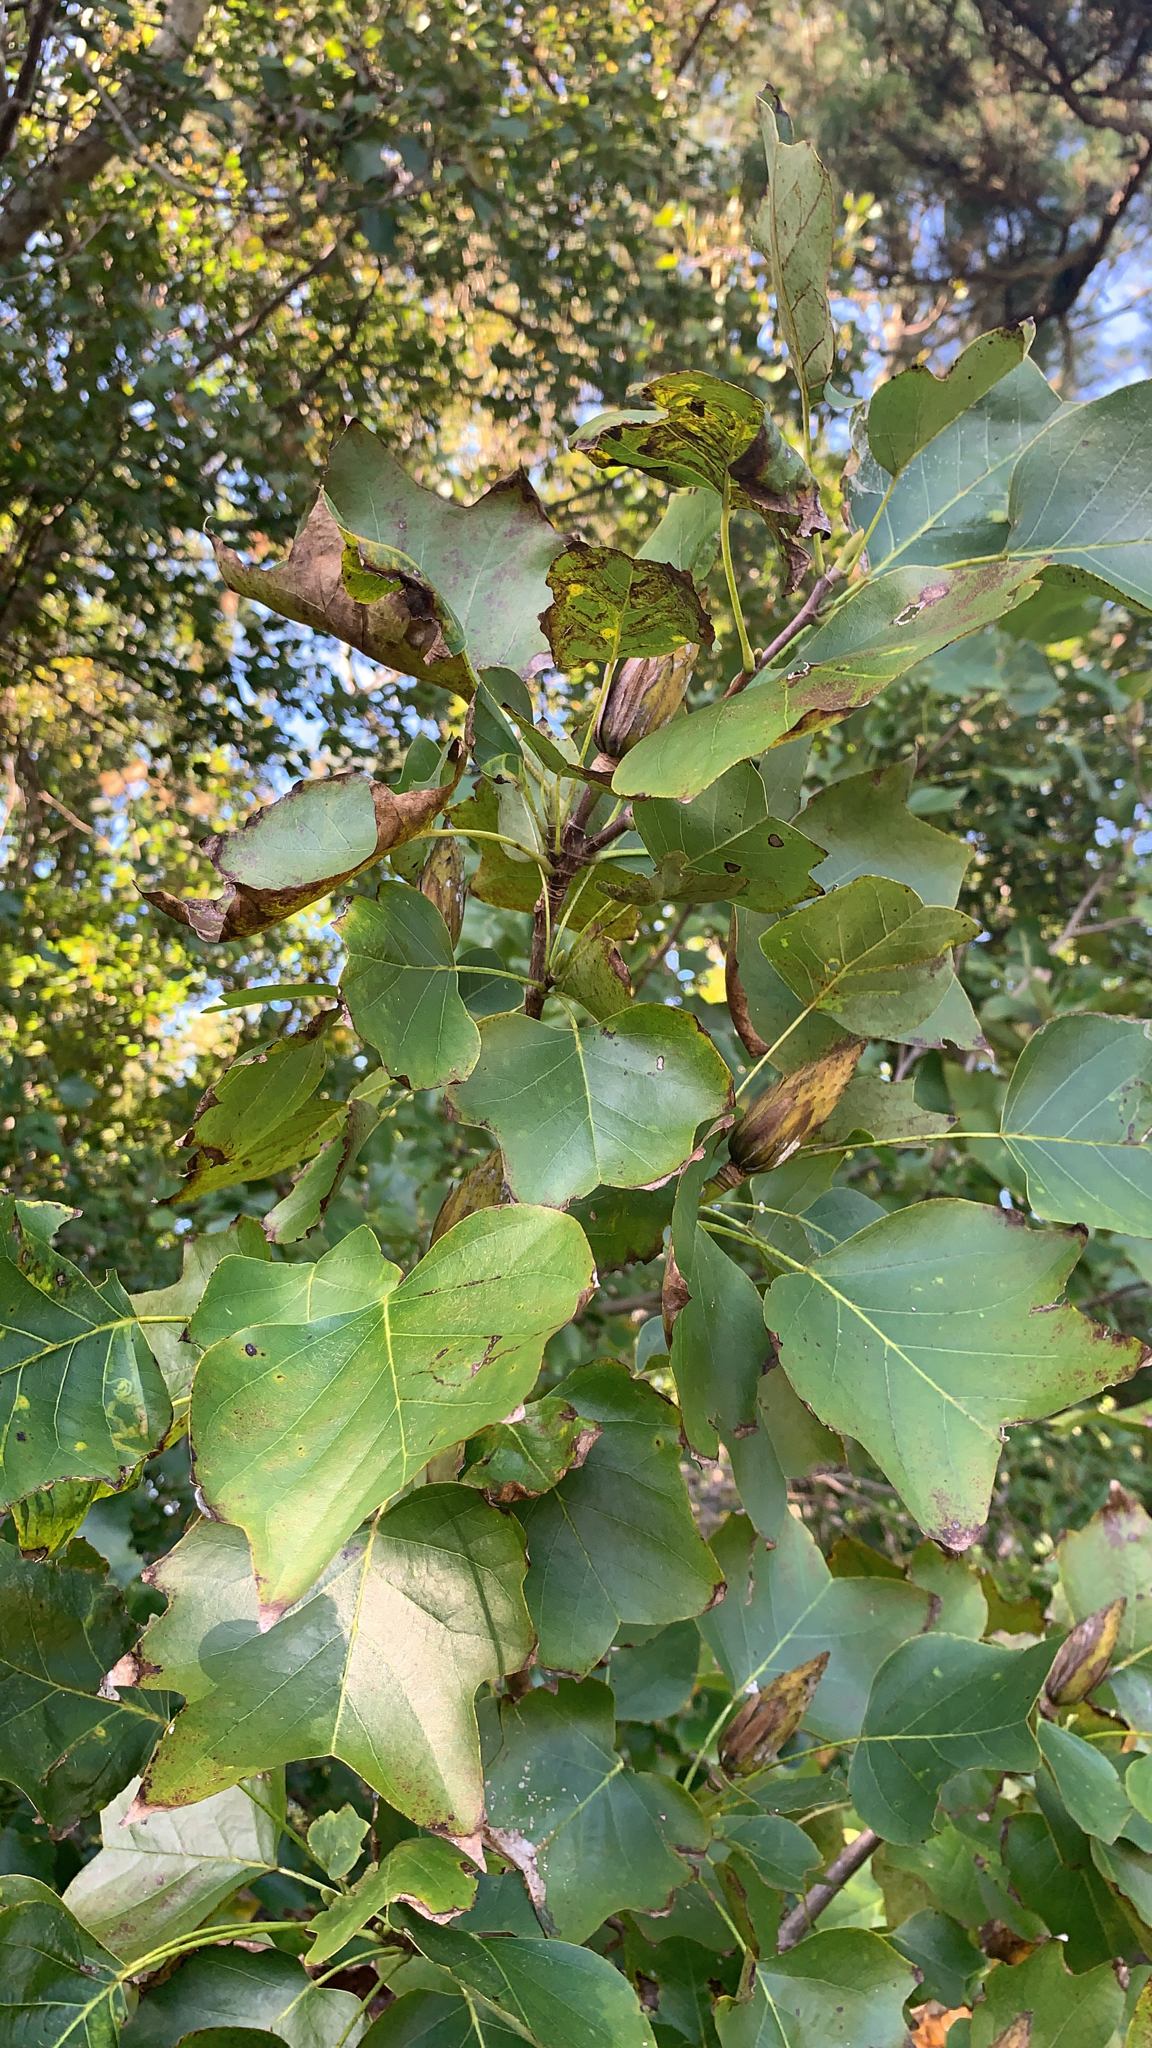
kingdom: Plantae
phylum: Tracheophyta
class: Magnoliopsida
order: Magnoliales
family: Magnoliaceae
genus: Liriodendron
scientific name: Liriodendron tulipifera
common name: Tulip tree
